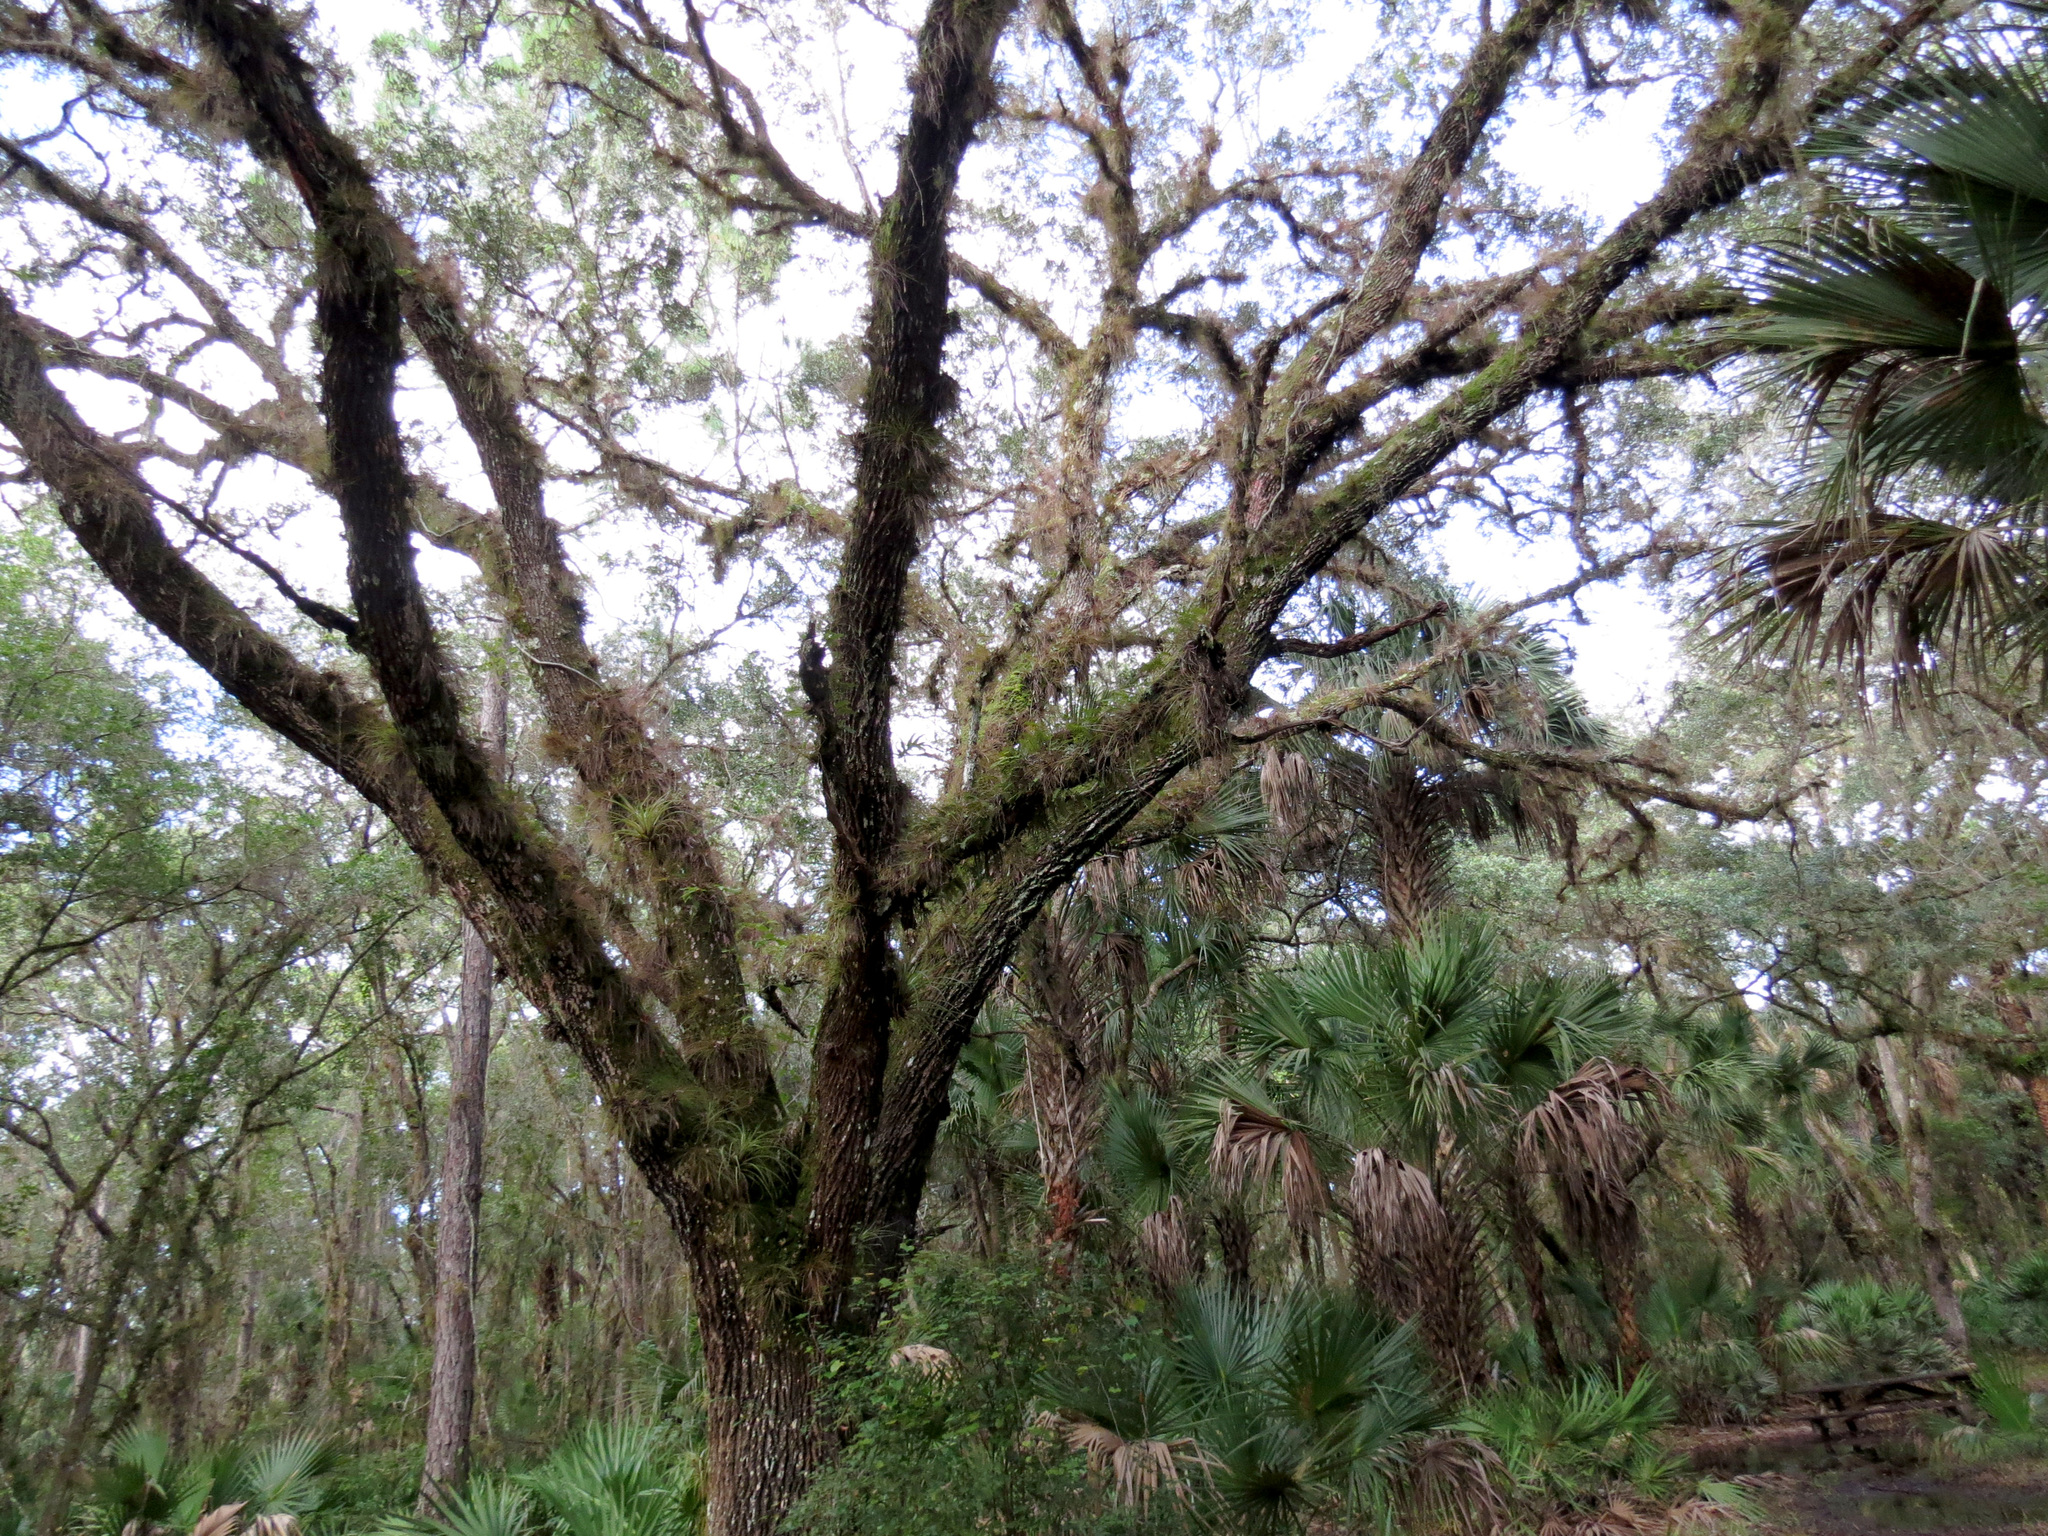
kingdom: Plantae
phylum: Tracheophyta
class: Magnoliopsida
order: Fagales
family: Fagaceae
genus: Quercus
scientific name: Quercus virginiana
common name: Southern live oak
